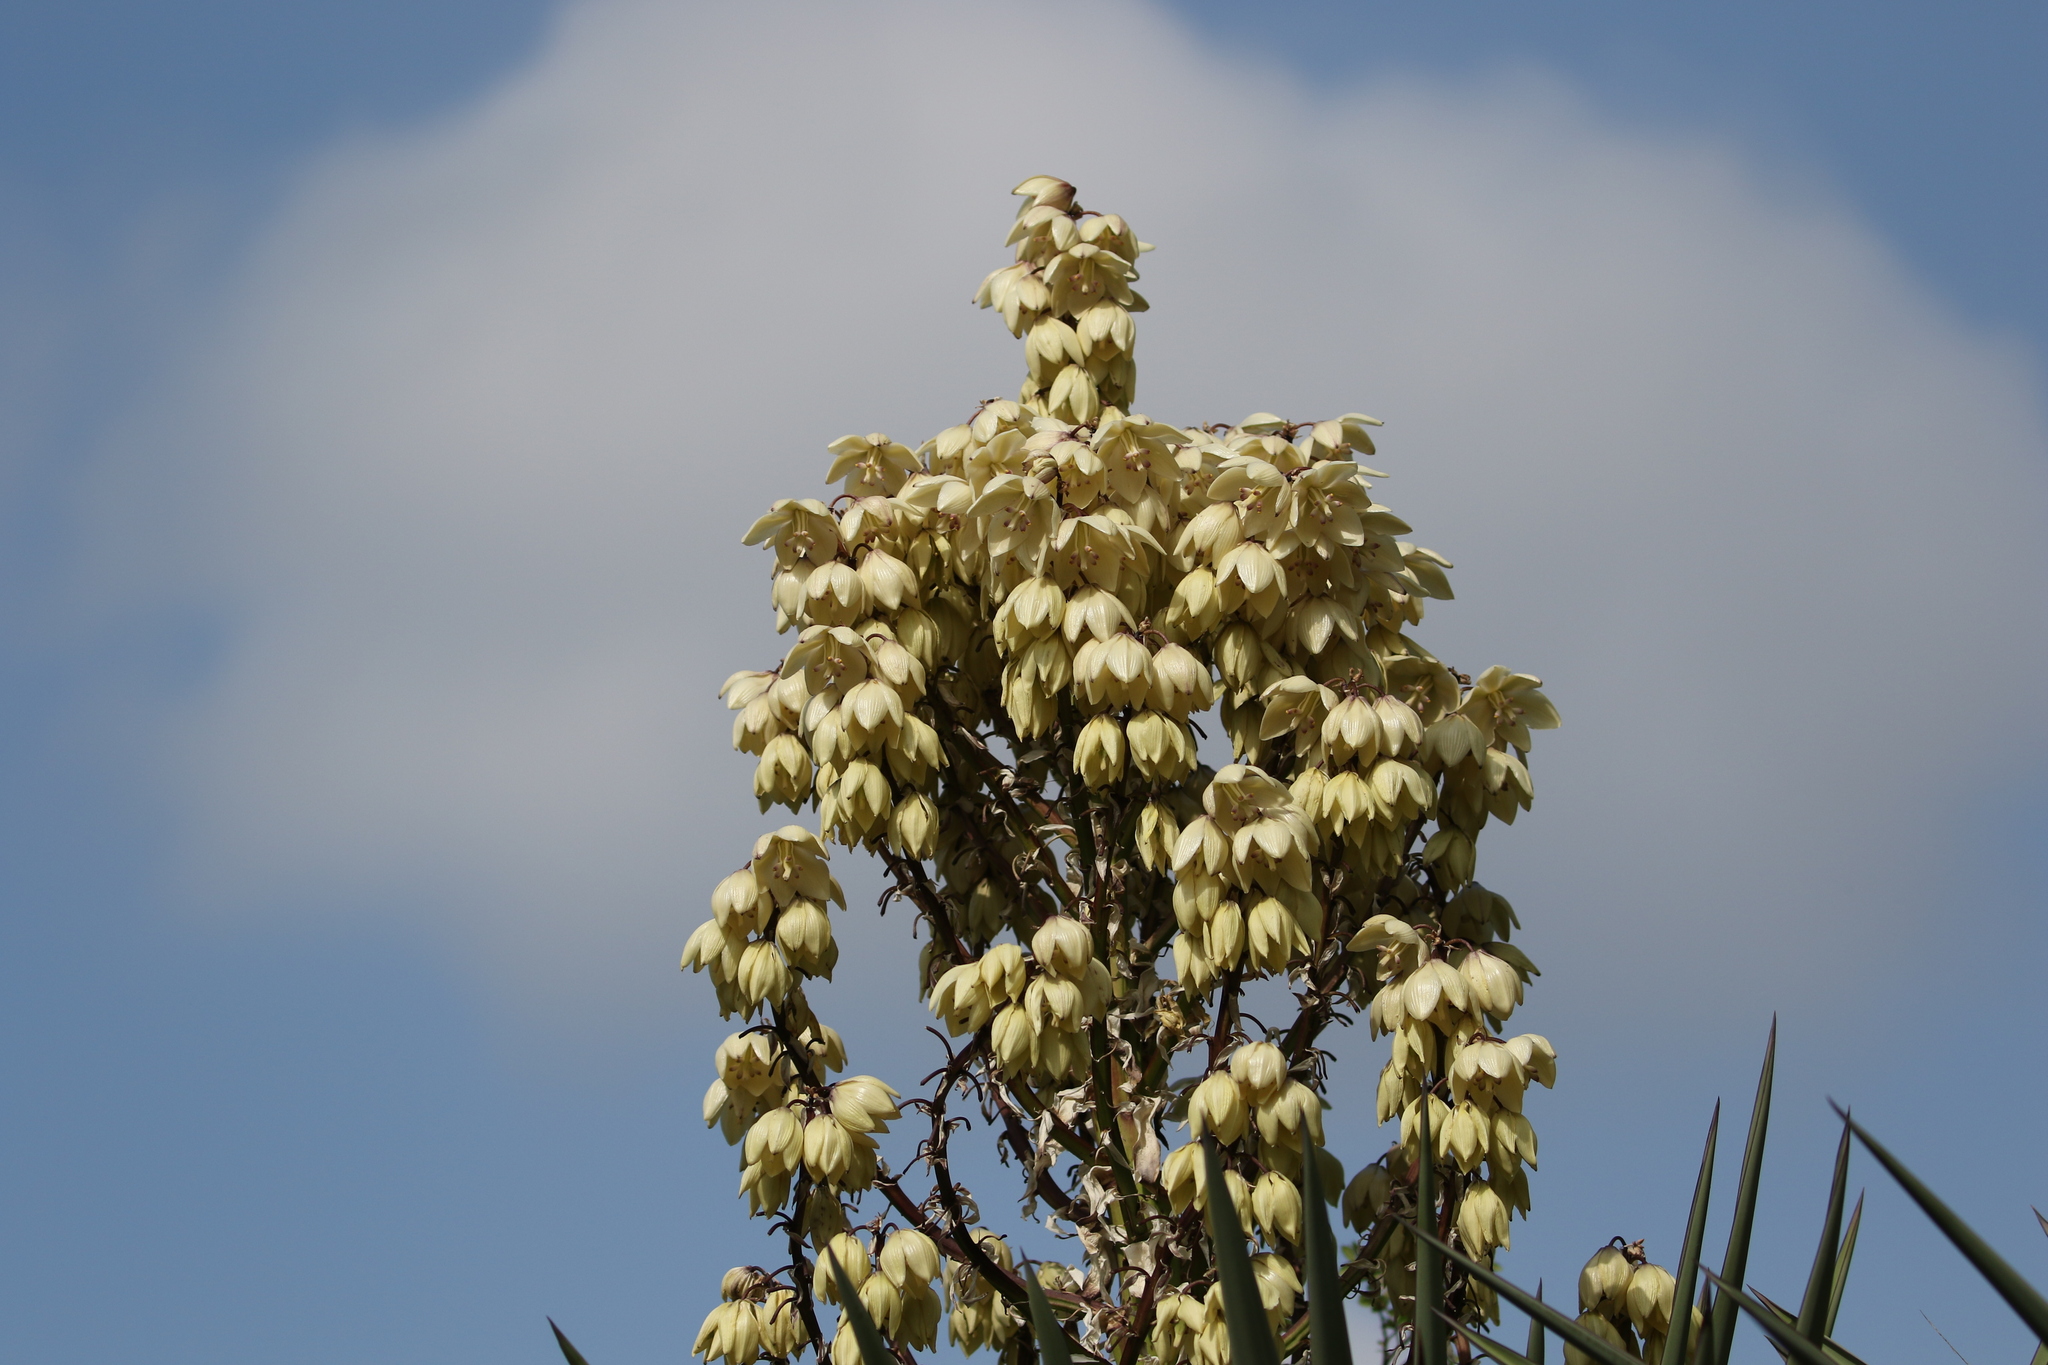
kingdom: Plantae
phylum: Tracheophyta
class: Liliopsida
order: Asparagales
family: Asparagaceae
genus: Yucca
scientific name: Yucca treculiana
